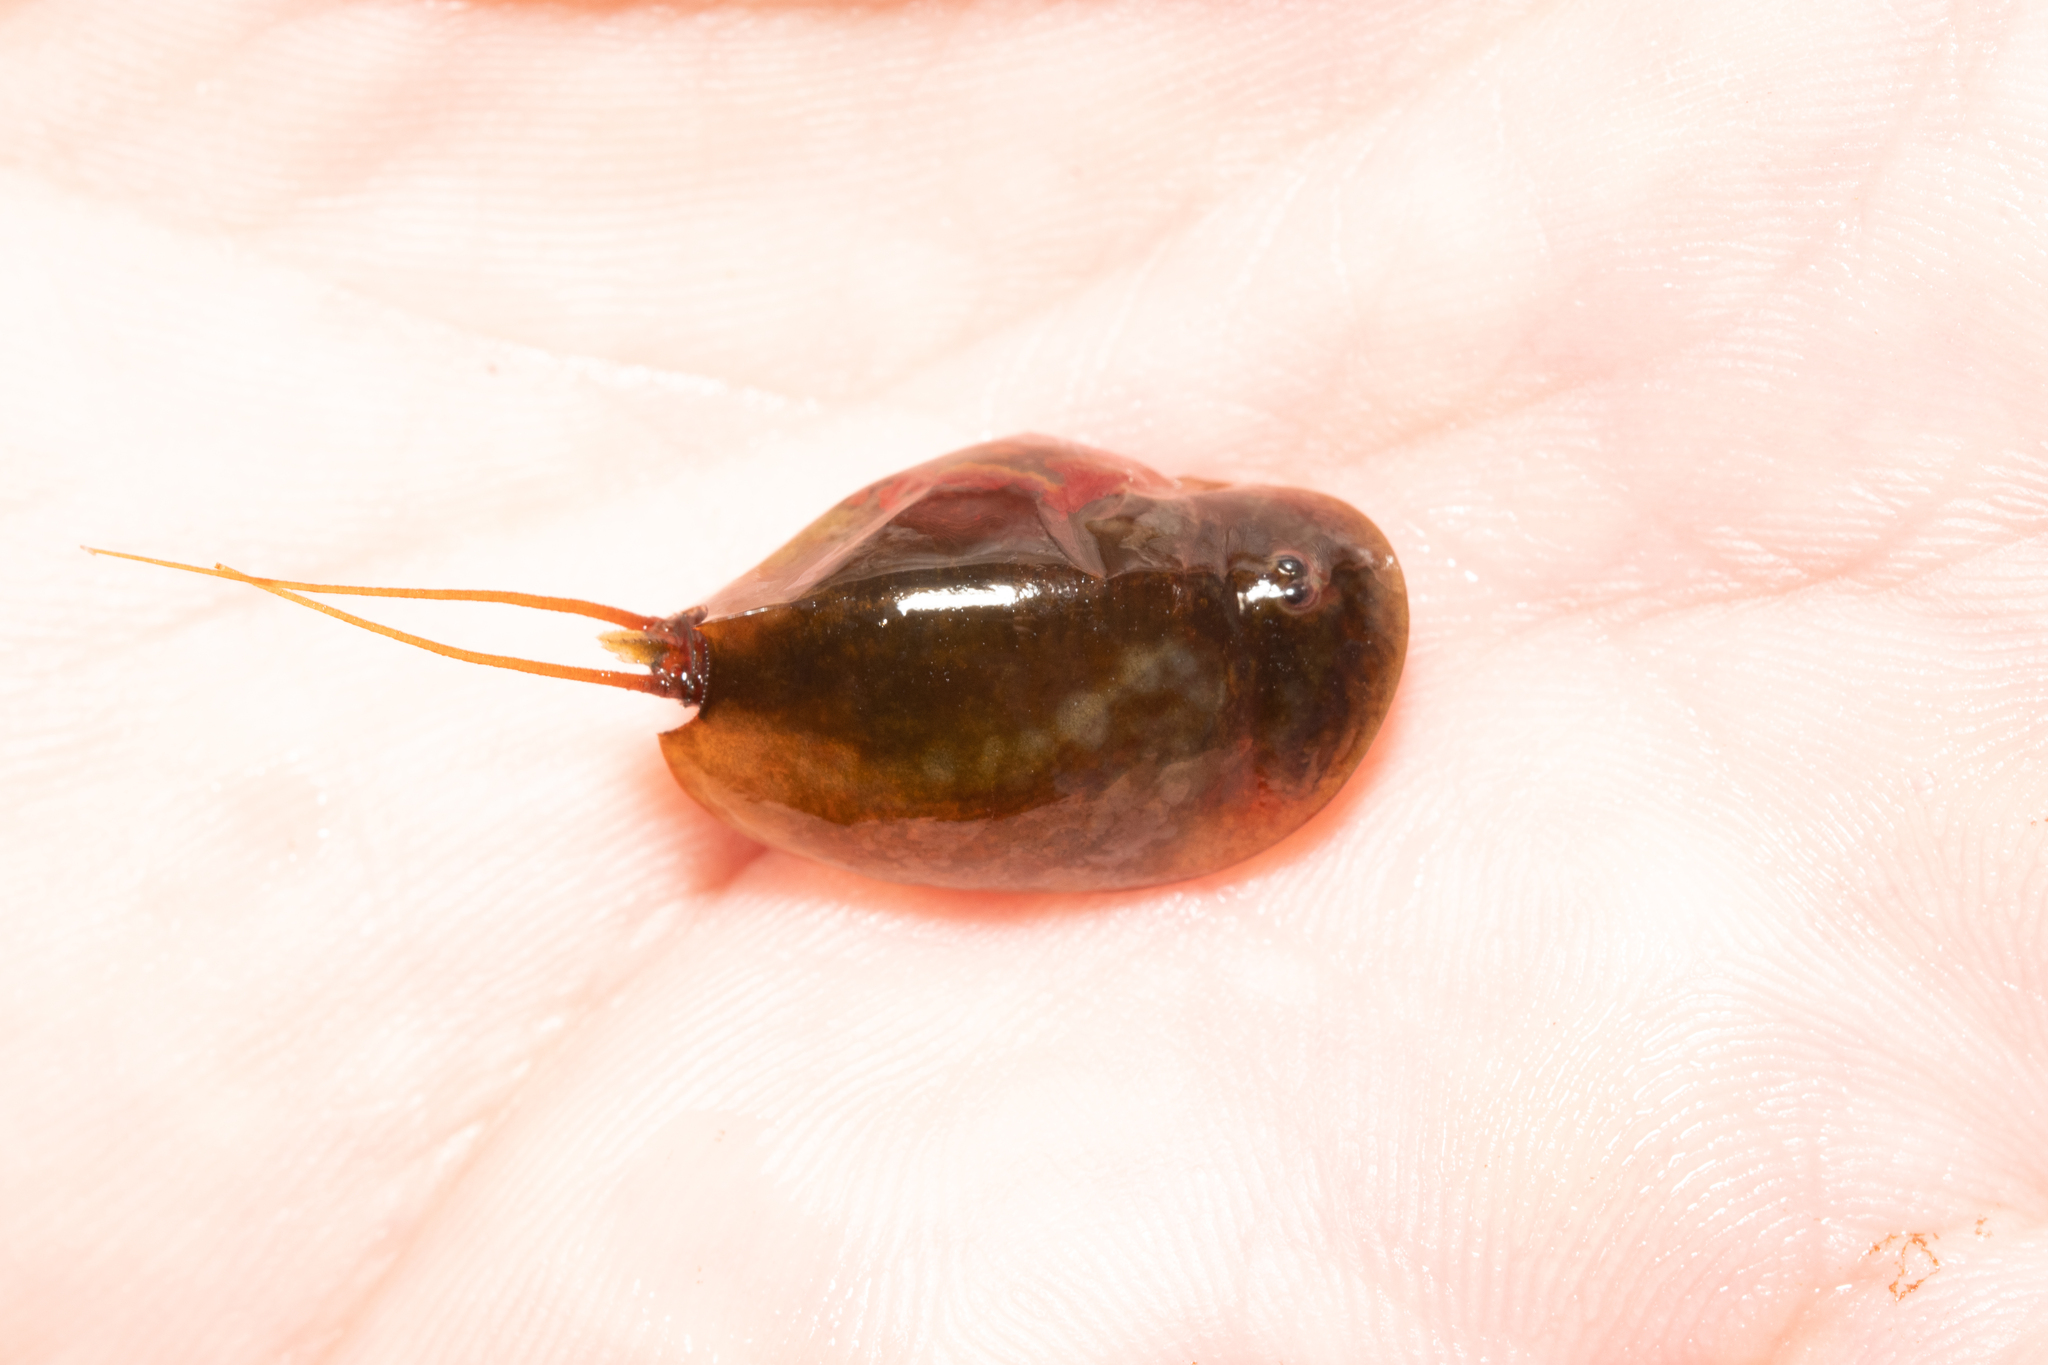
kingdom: Animalia
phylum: Arthropoda
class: Branchiopoda
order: Notostraca
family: Triopsidae
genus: Lepidurus
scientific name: Lepidurus apus
